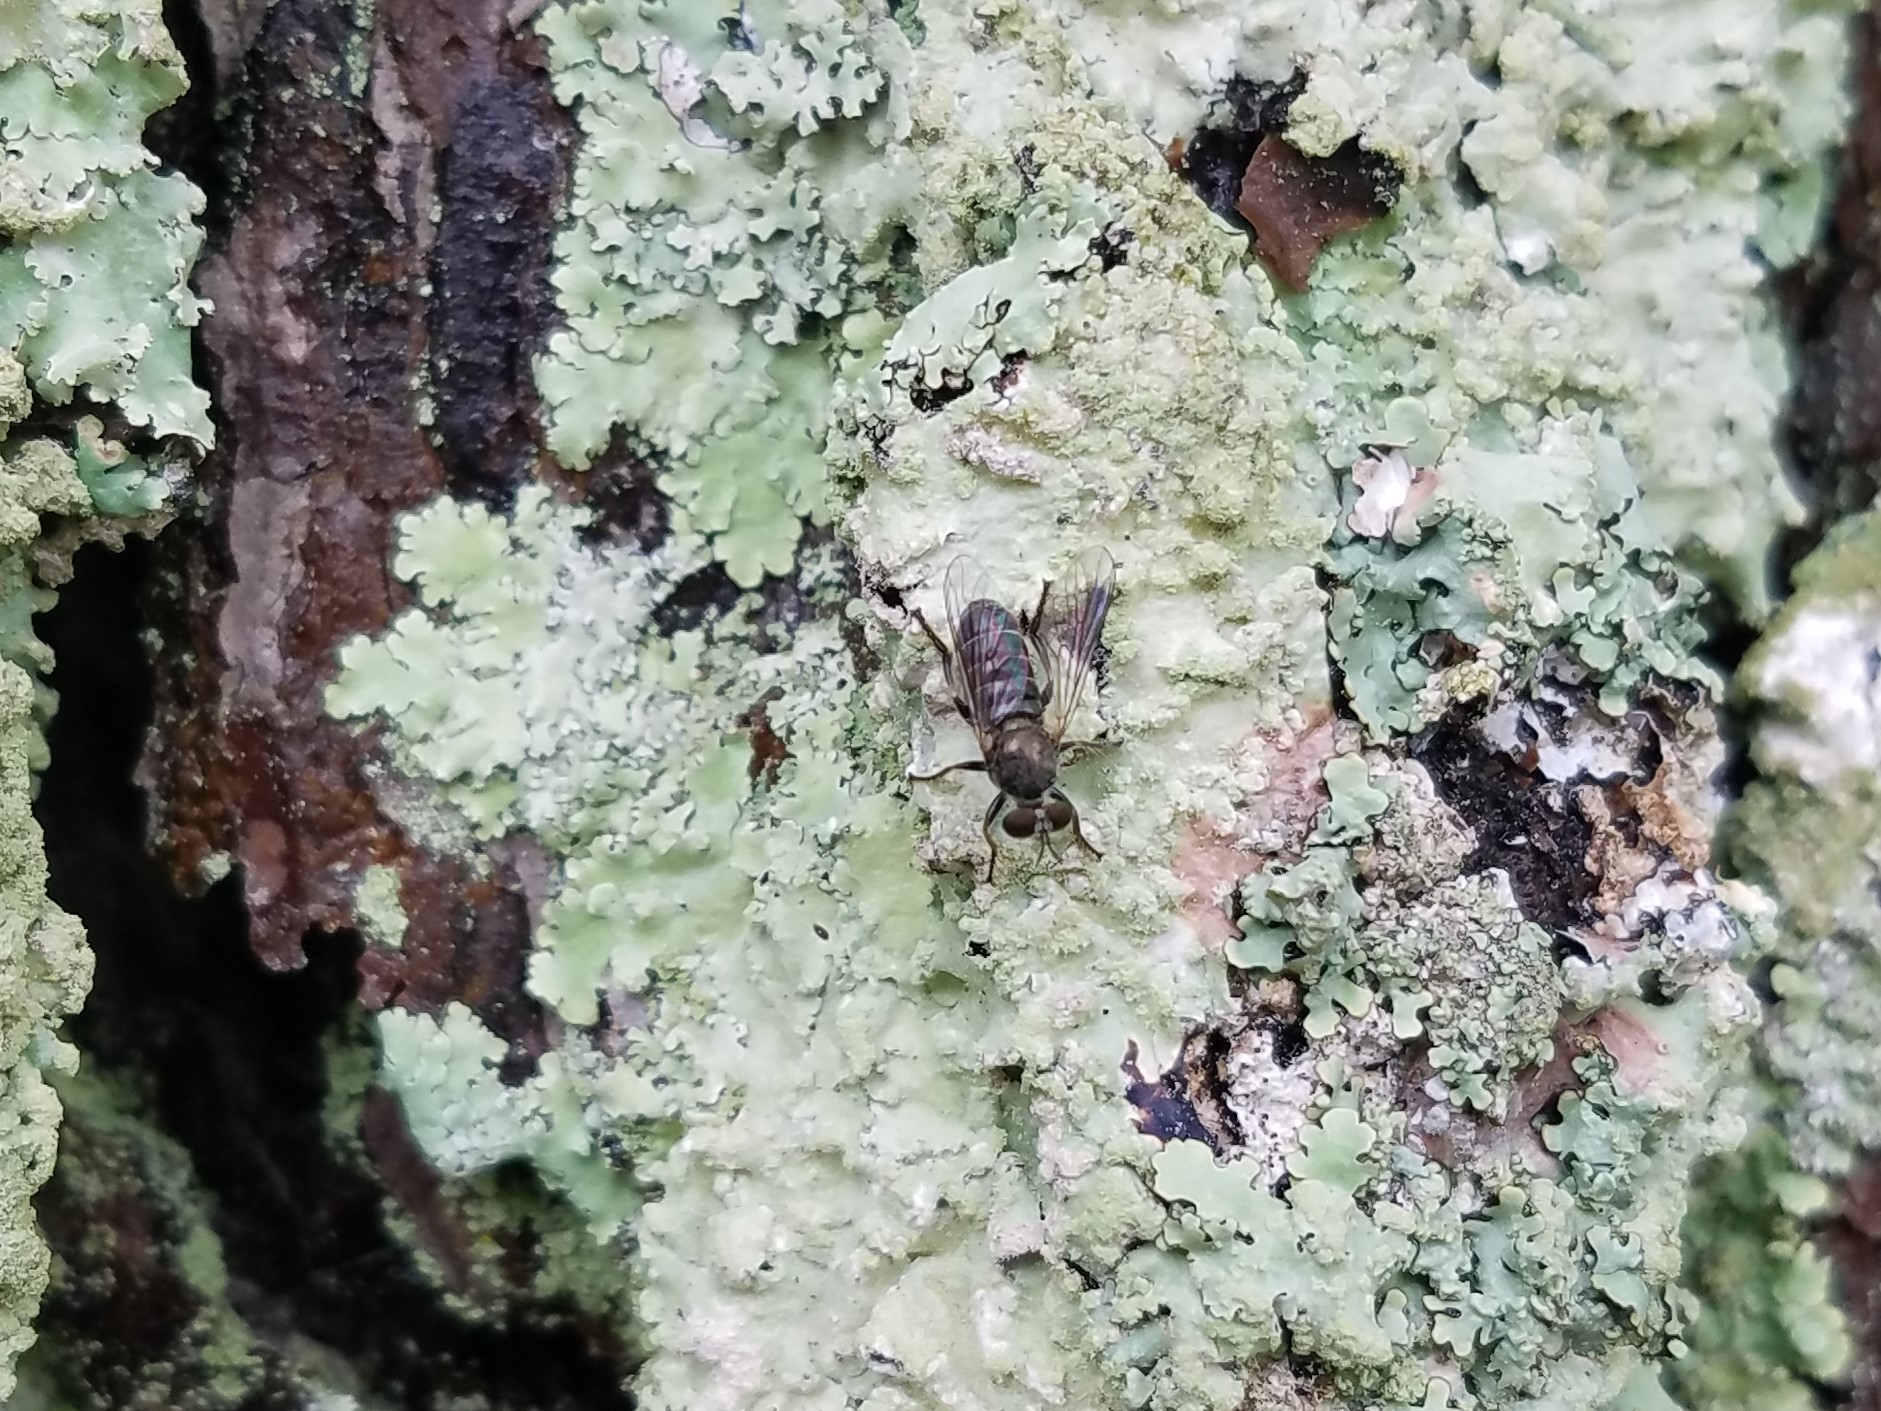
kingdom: Animalia
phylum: Arthropoda
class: Insecta
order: Diptera
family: Asilidae
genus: Atomosia
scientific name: Atomosia puella
